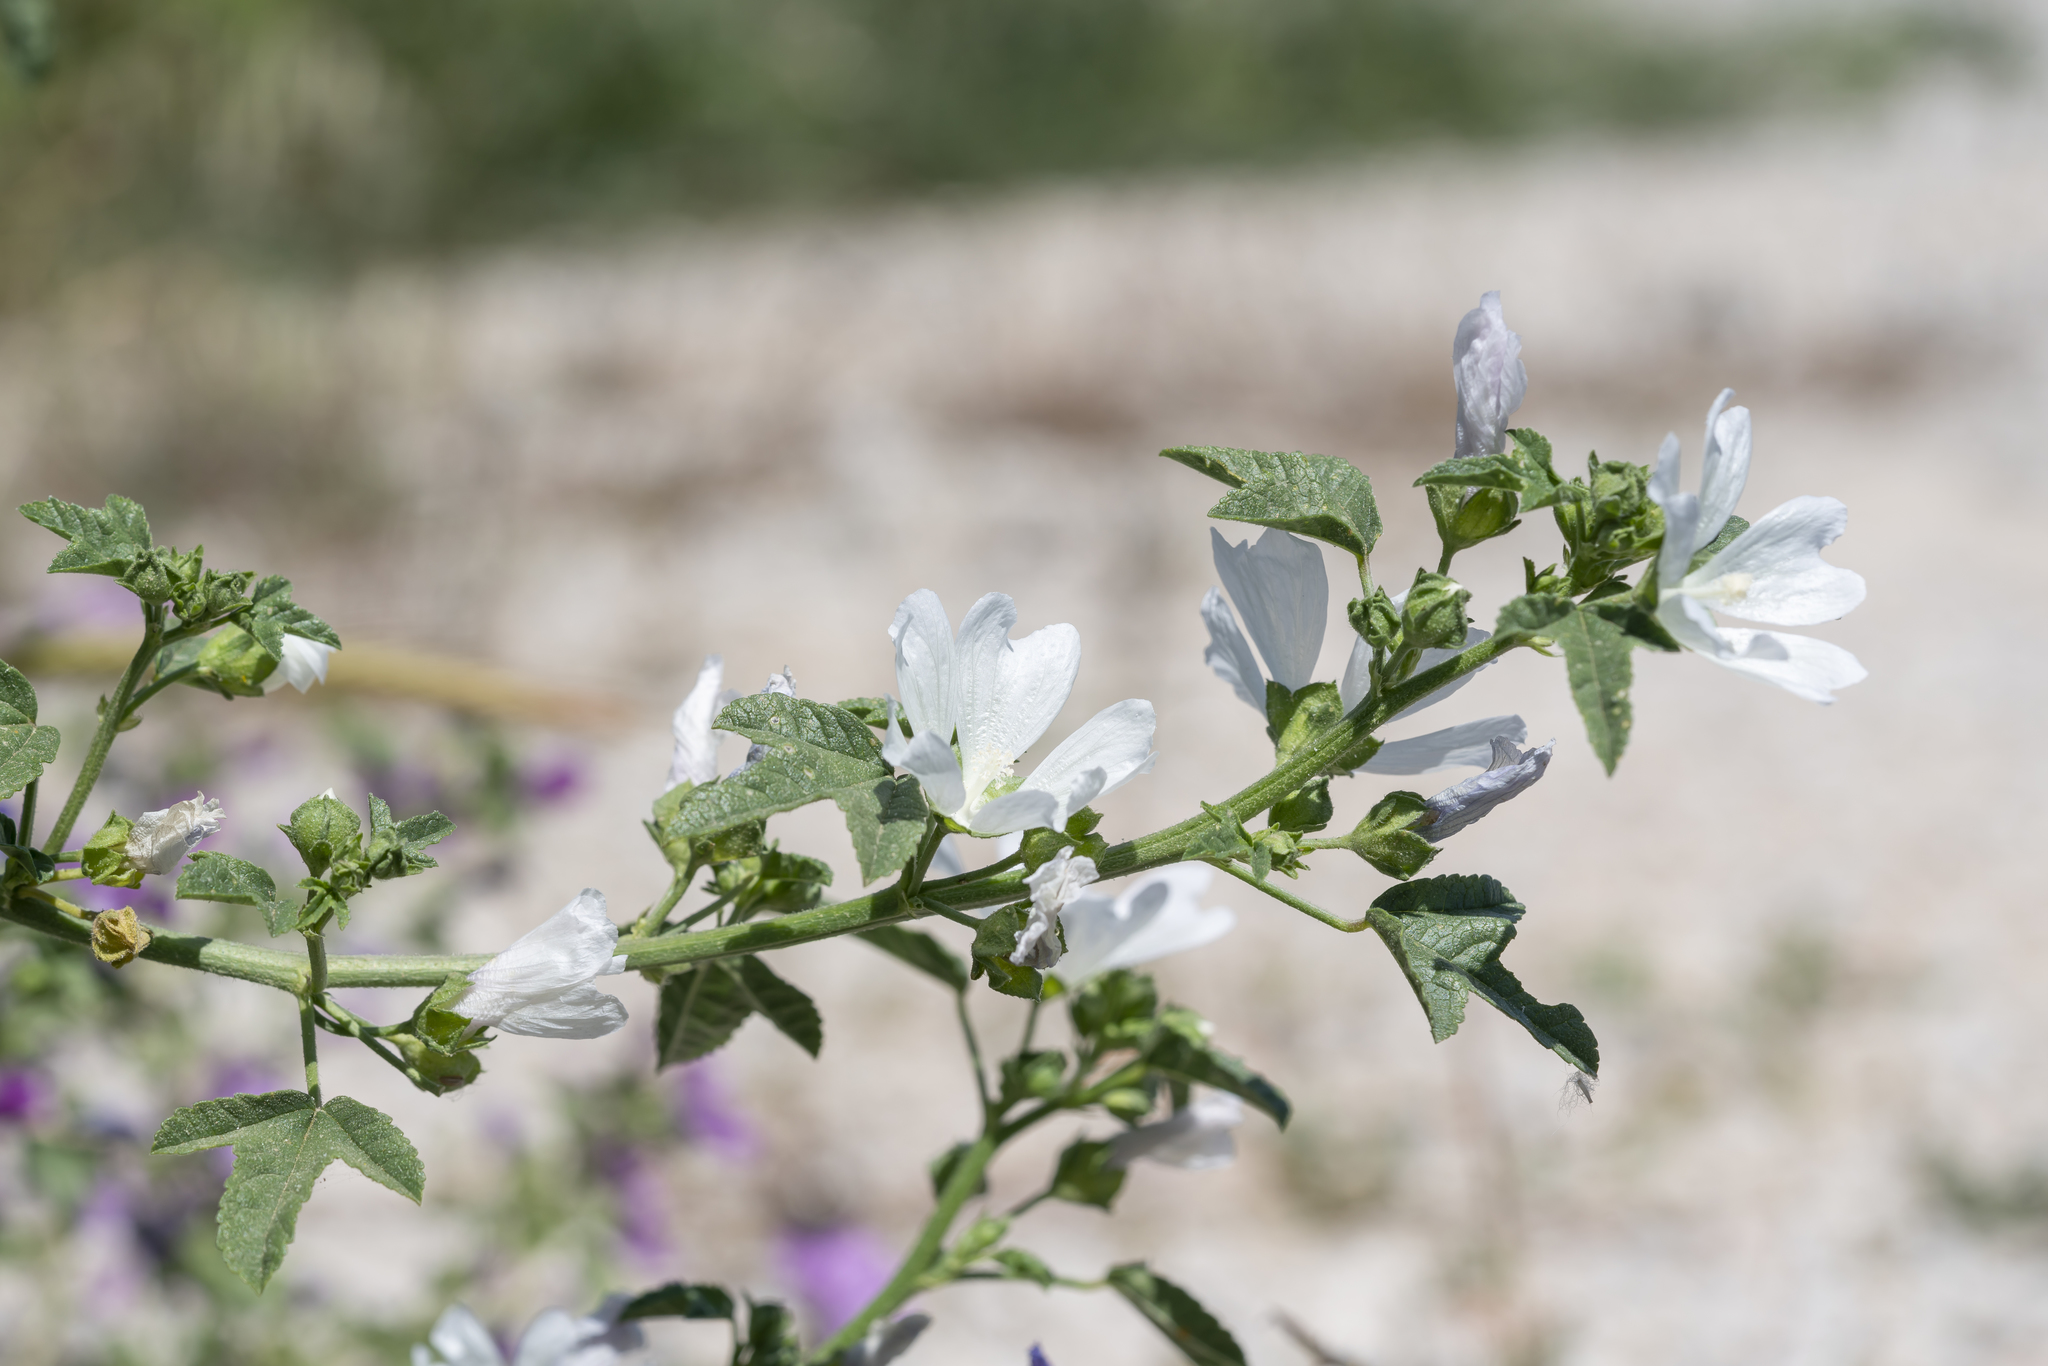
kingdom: Plantae
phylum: Tracheophyta
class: Magnoliopsida
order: Malvales
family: Malvaceae
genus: Malva
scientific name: Malva sylvestris
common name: Common mallow
